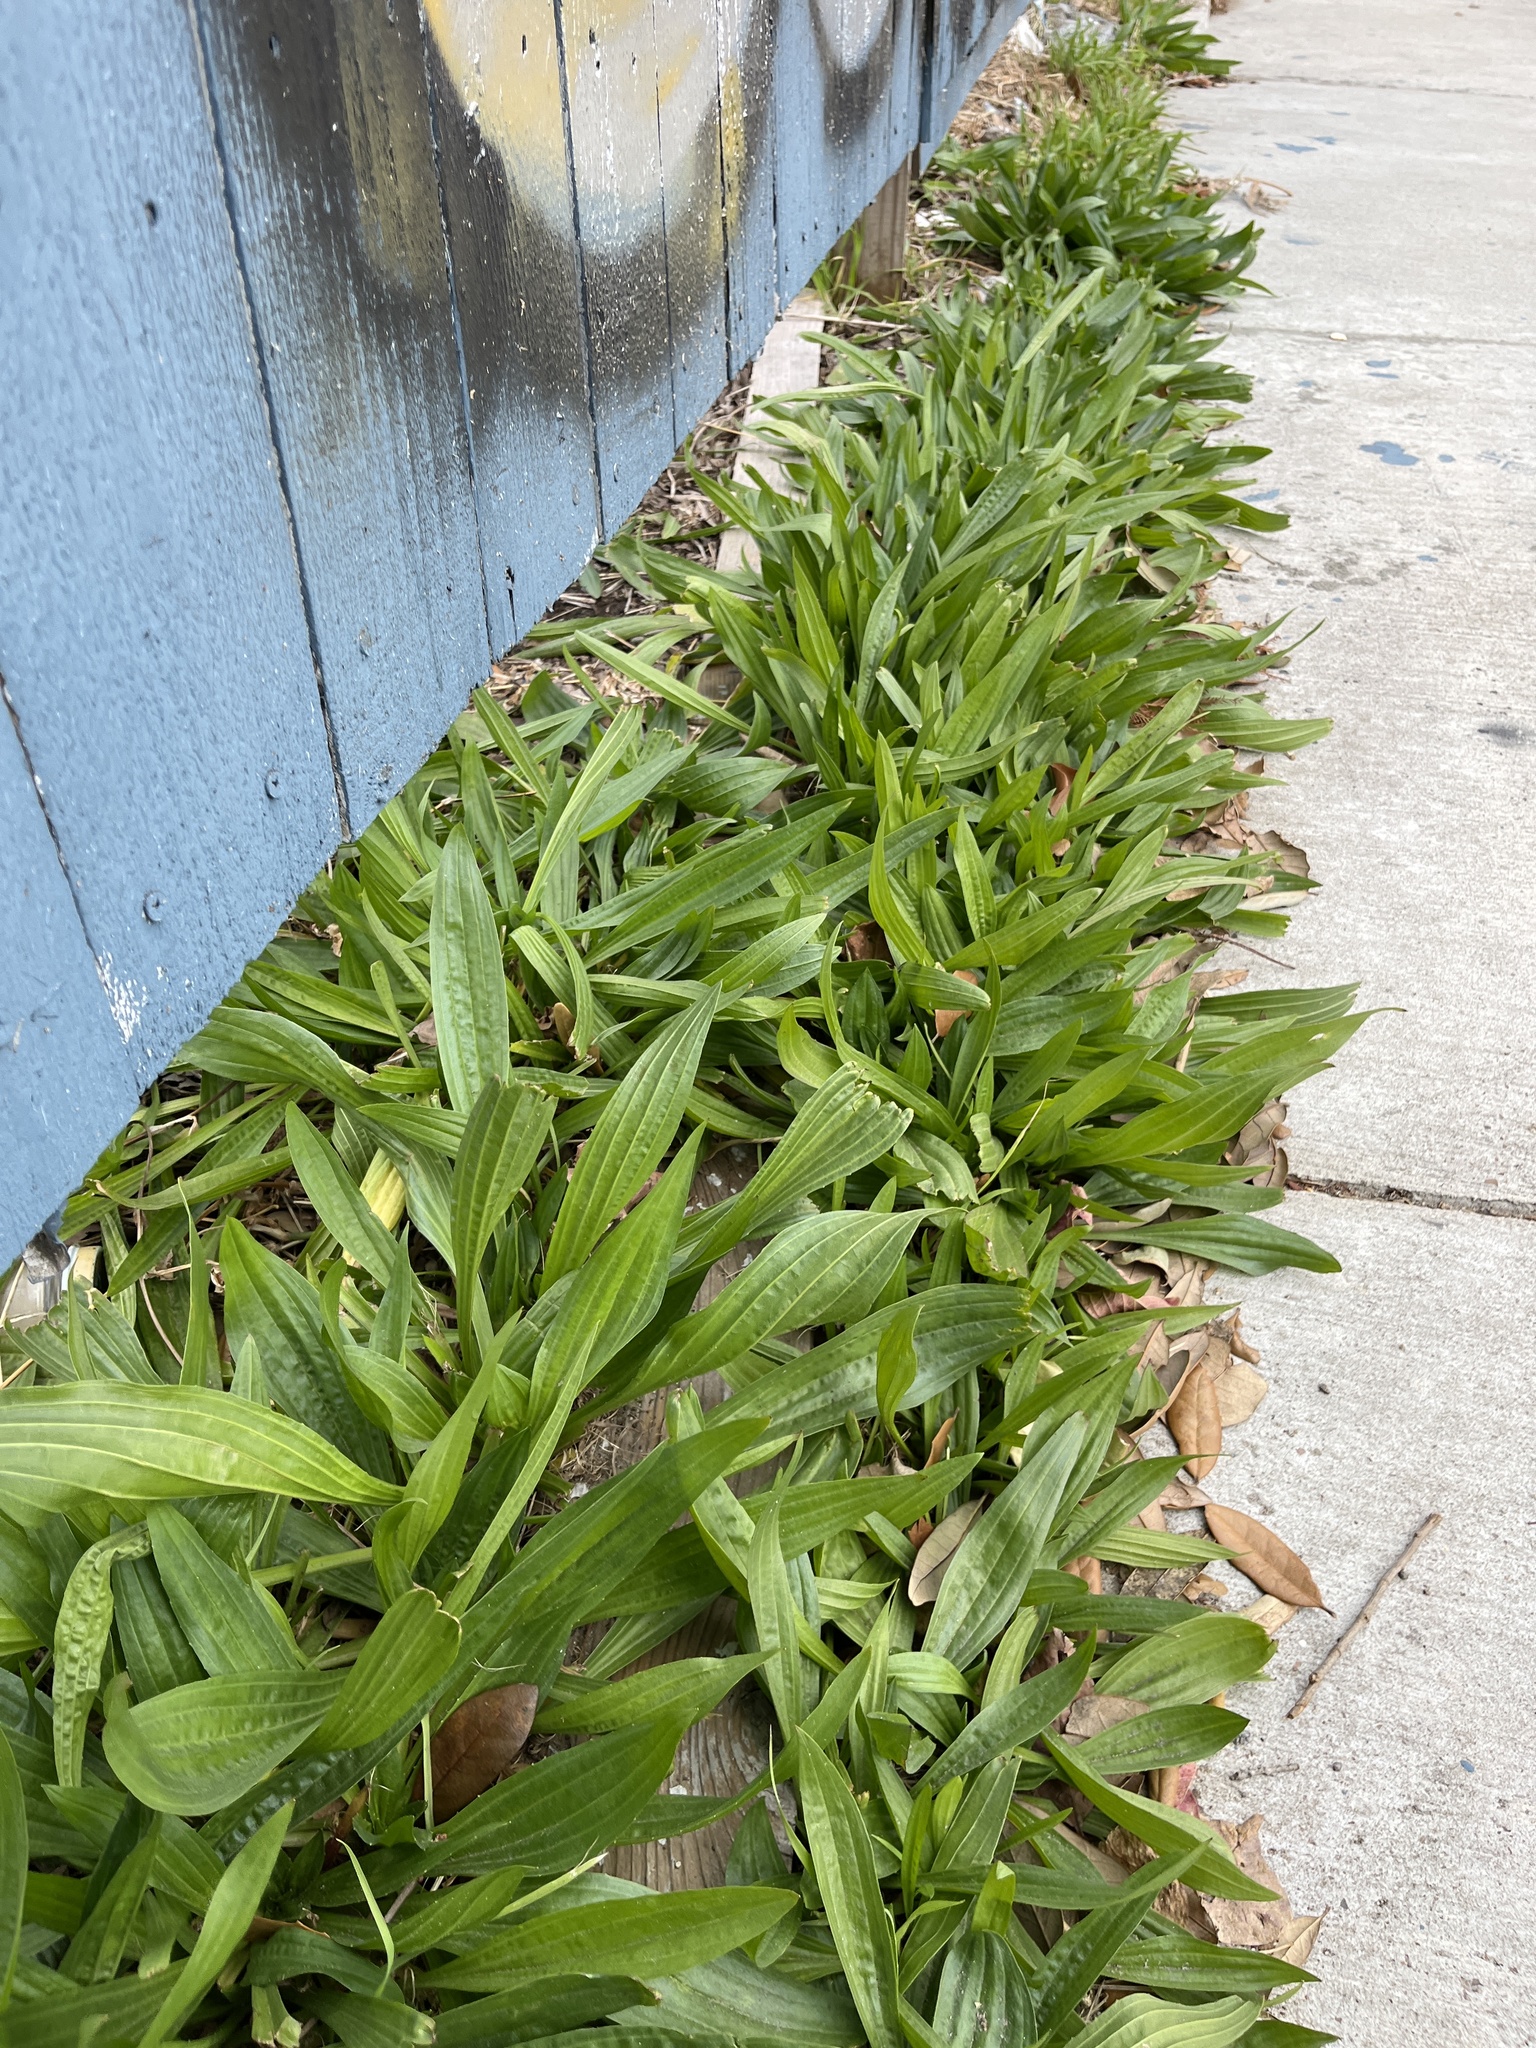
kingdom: Plantae
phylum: Tracheophyta
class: Magnoliopsida
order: Lamiales
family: Plantaginaceae
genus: Plantago
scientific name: Plantago lanceolata
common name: Ribwort plantain
